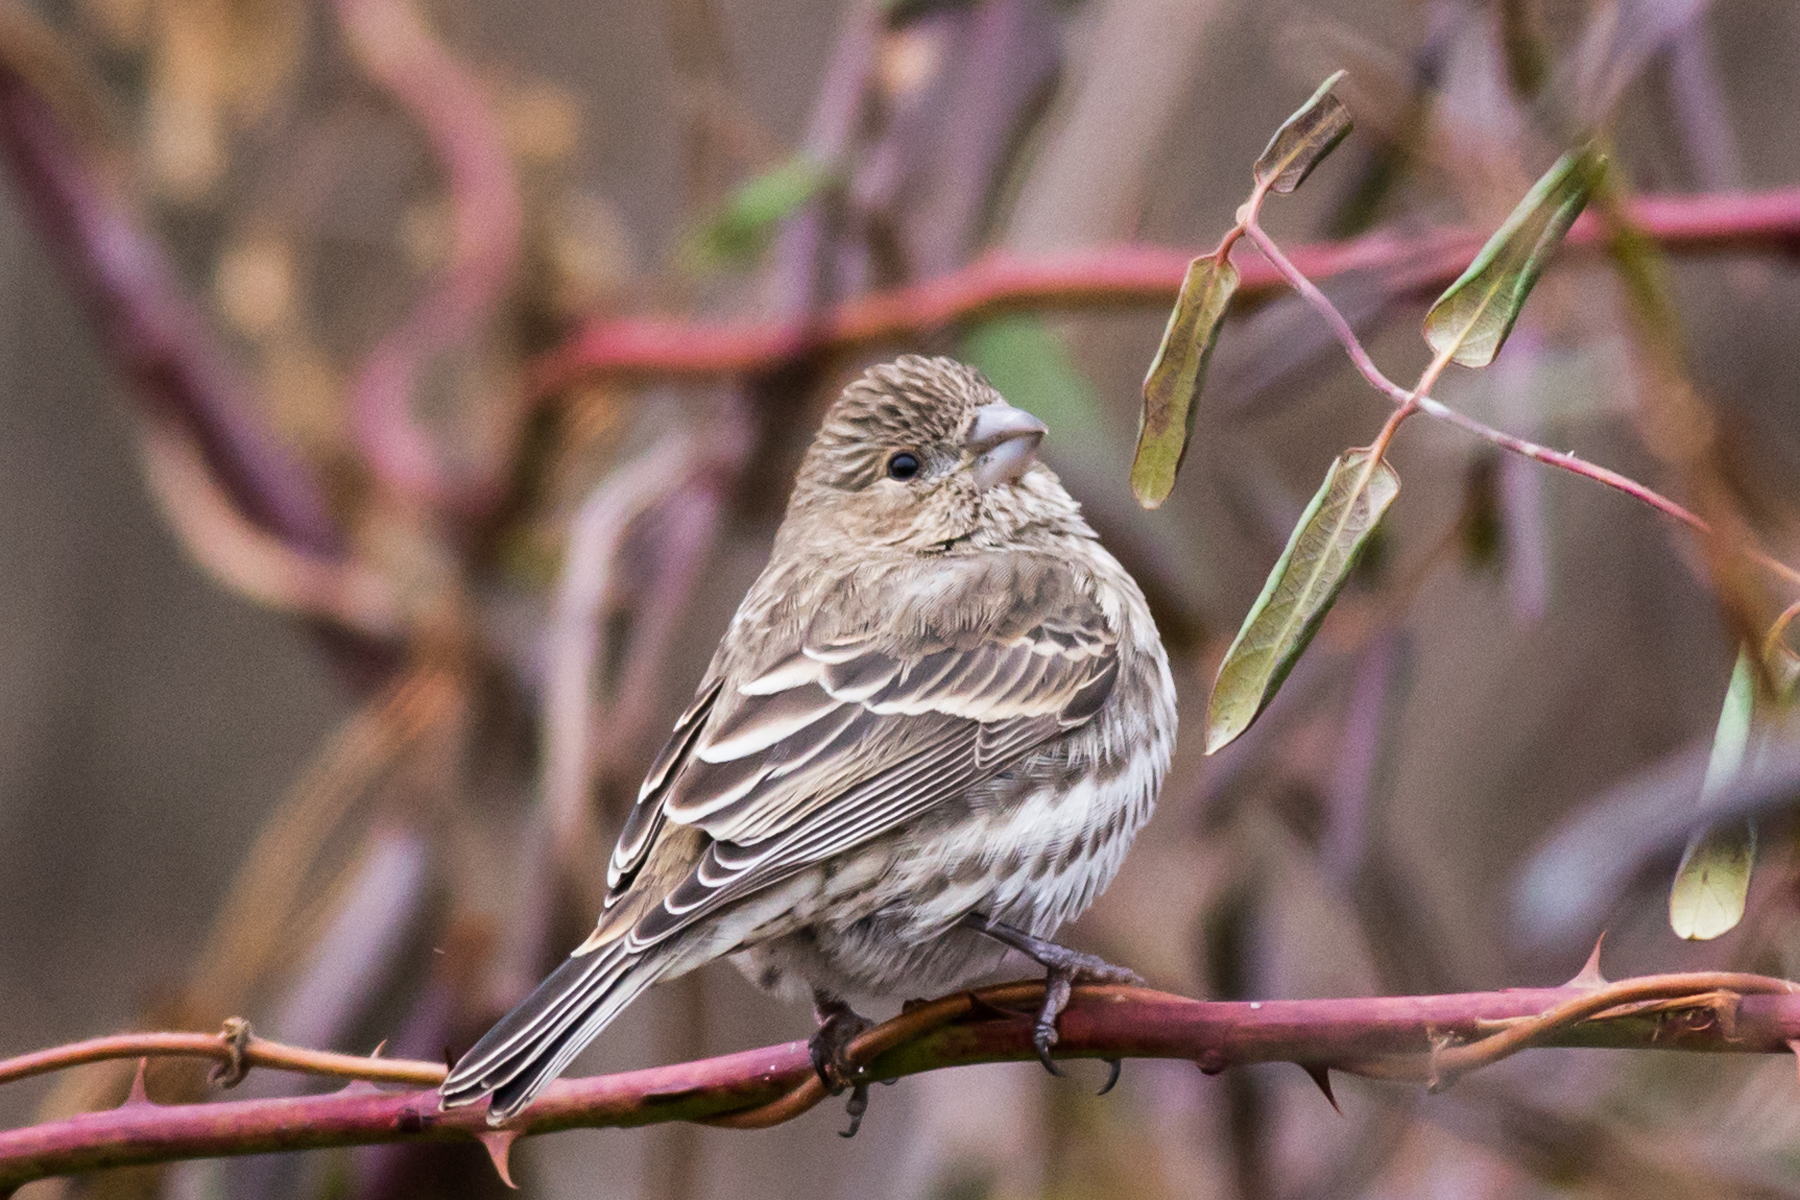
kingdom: Animalia
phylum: Chordata
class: Aves
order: Passeriformes
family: Fringillidae
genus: Haemorhous
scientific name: Haemorhous mexicanus
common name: House finch
